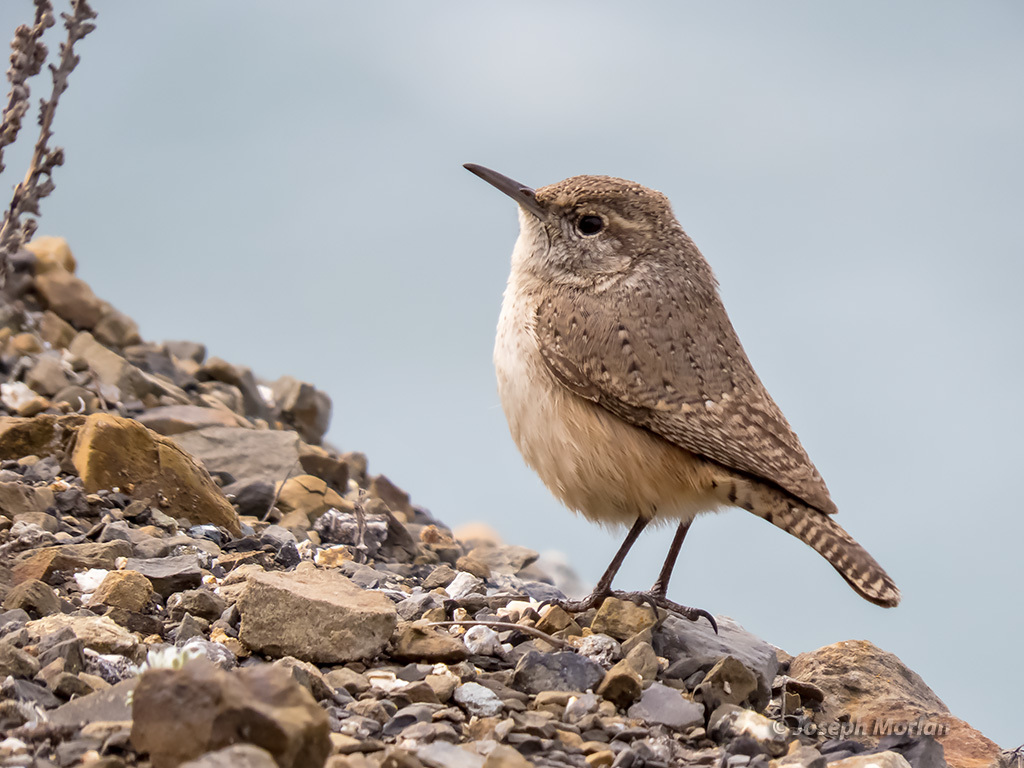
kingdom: Animalia
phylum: Chordata
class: Aves
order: Passeriformes
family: Troglodytidae
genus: Salpinctes
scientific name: Salpinctes obsoletus
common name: Rock wren
